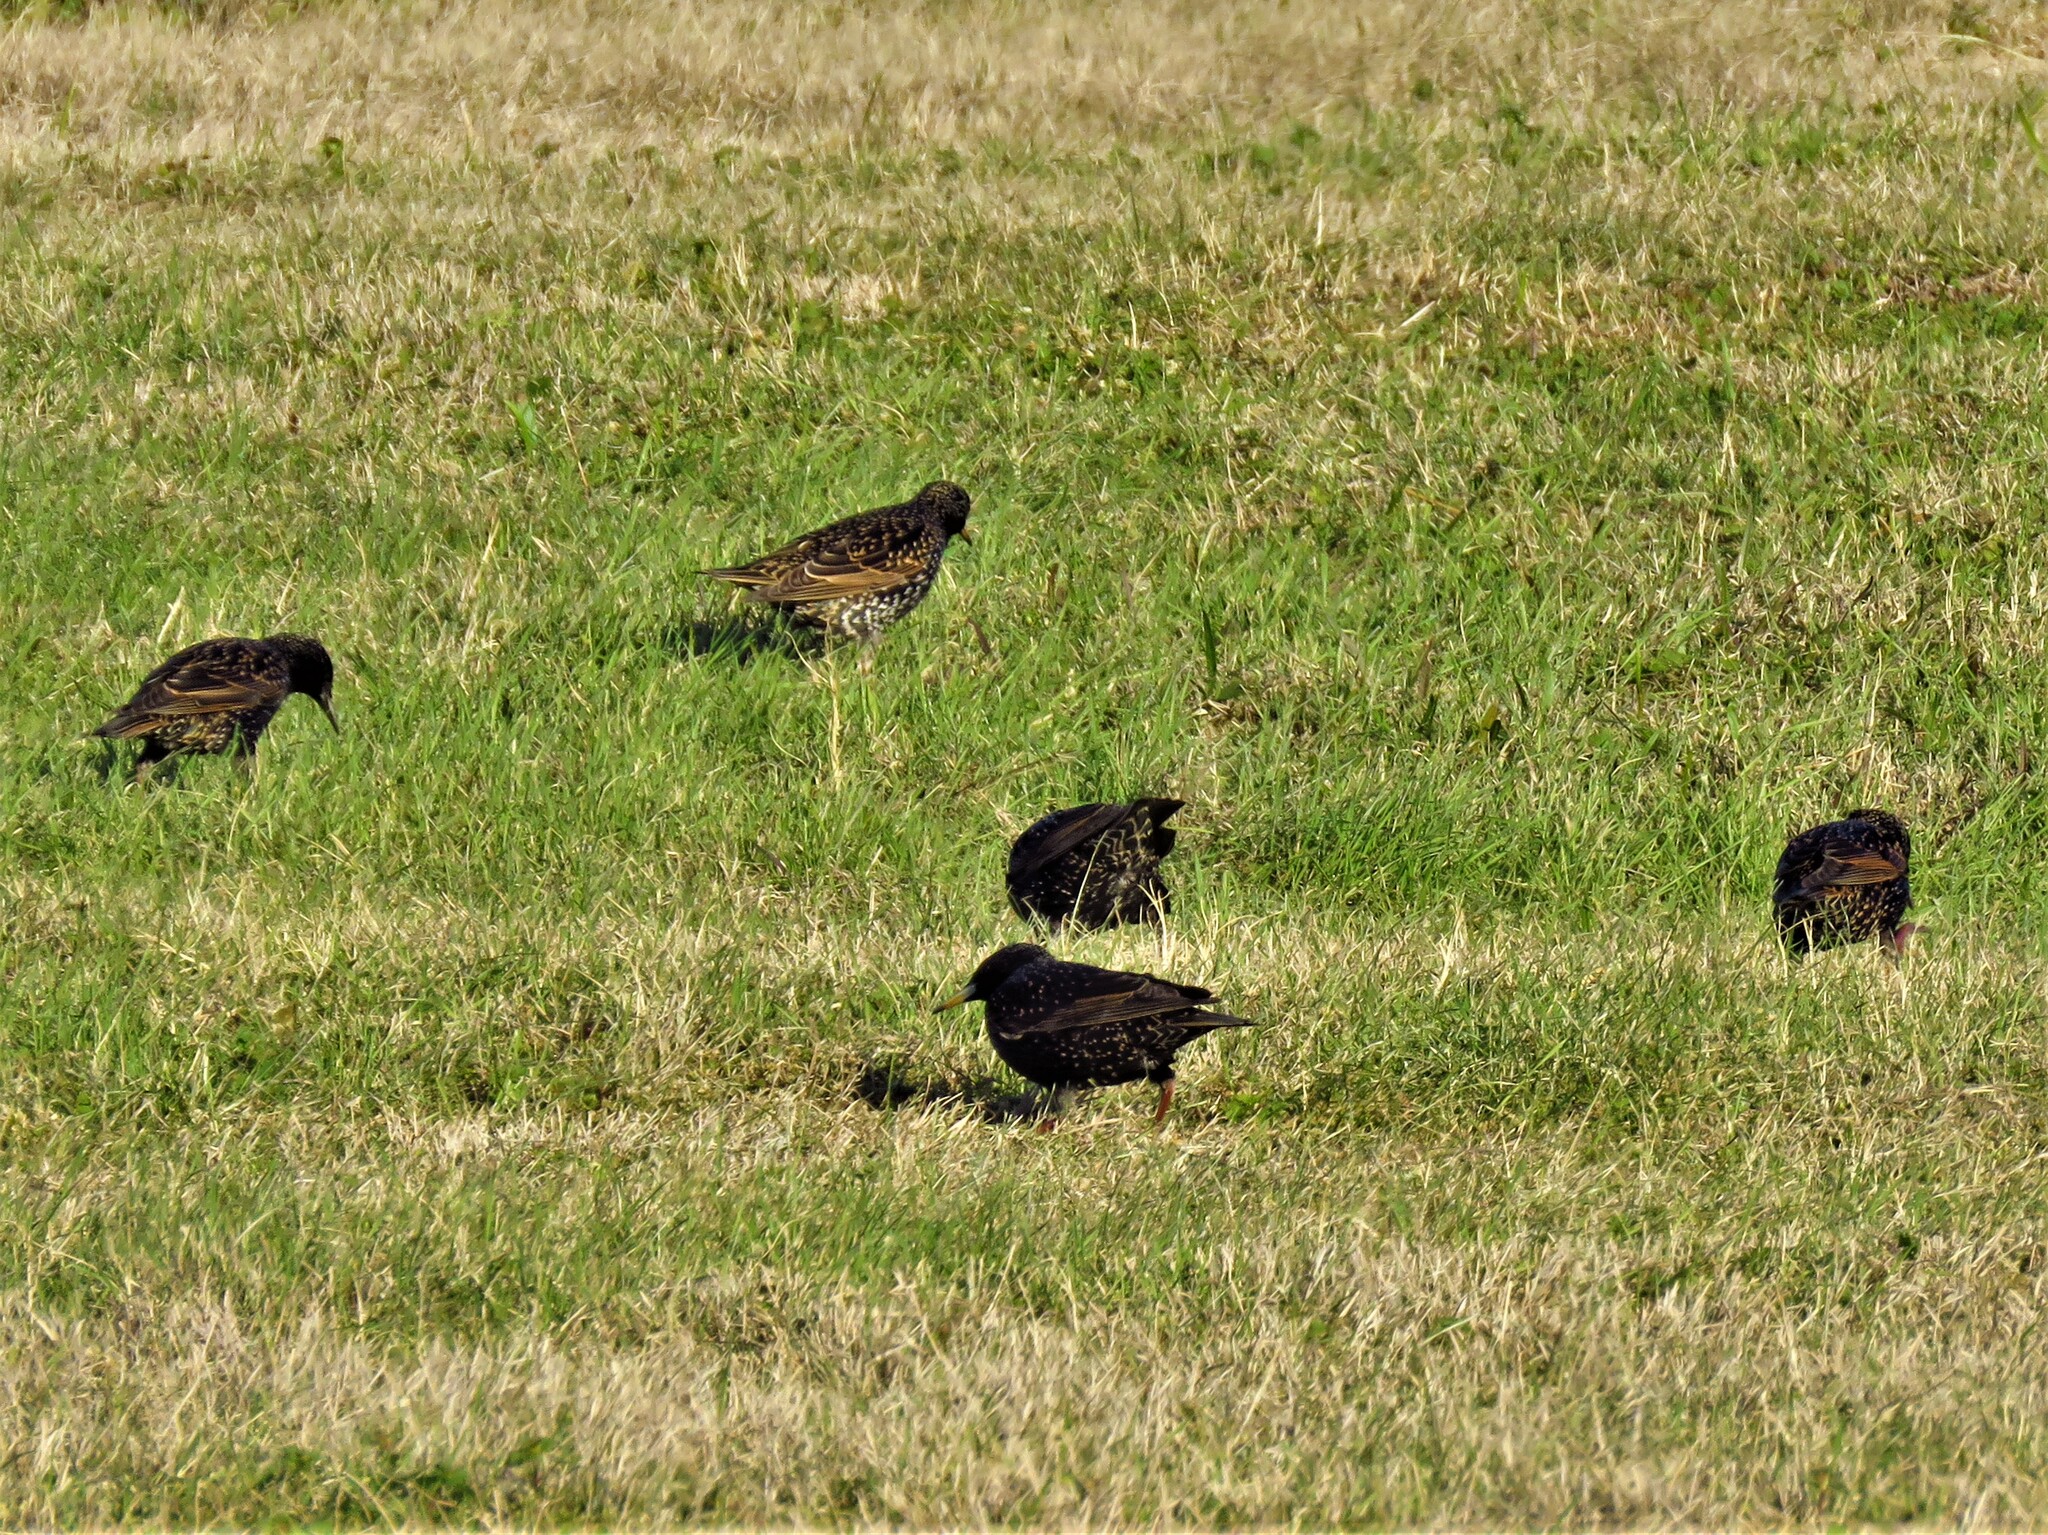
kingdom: Animalia
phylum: Chordata
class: Aves
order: Passeriformes
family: Sturnidae
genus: Sturnus
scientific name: Sturnus vulgaris
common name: Common starling
